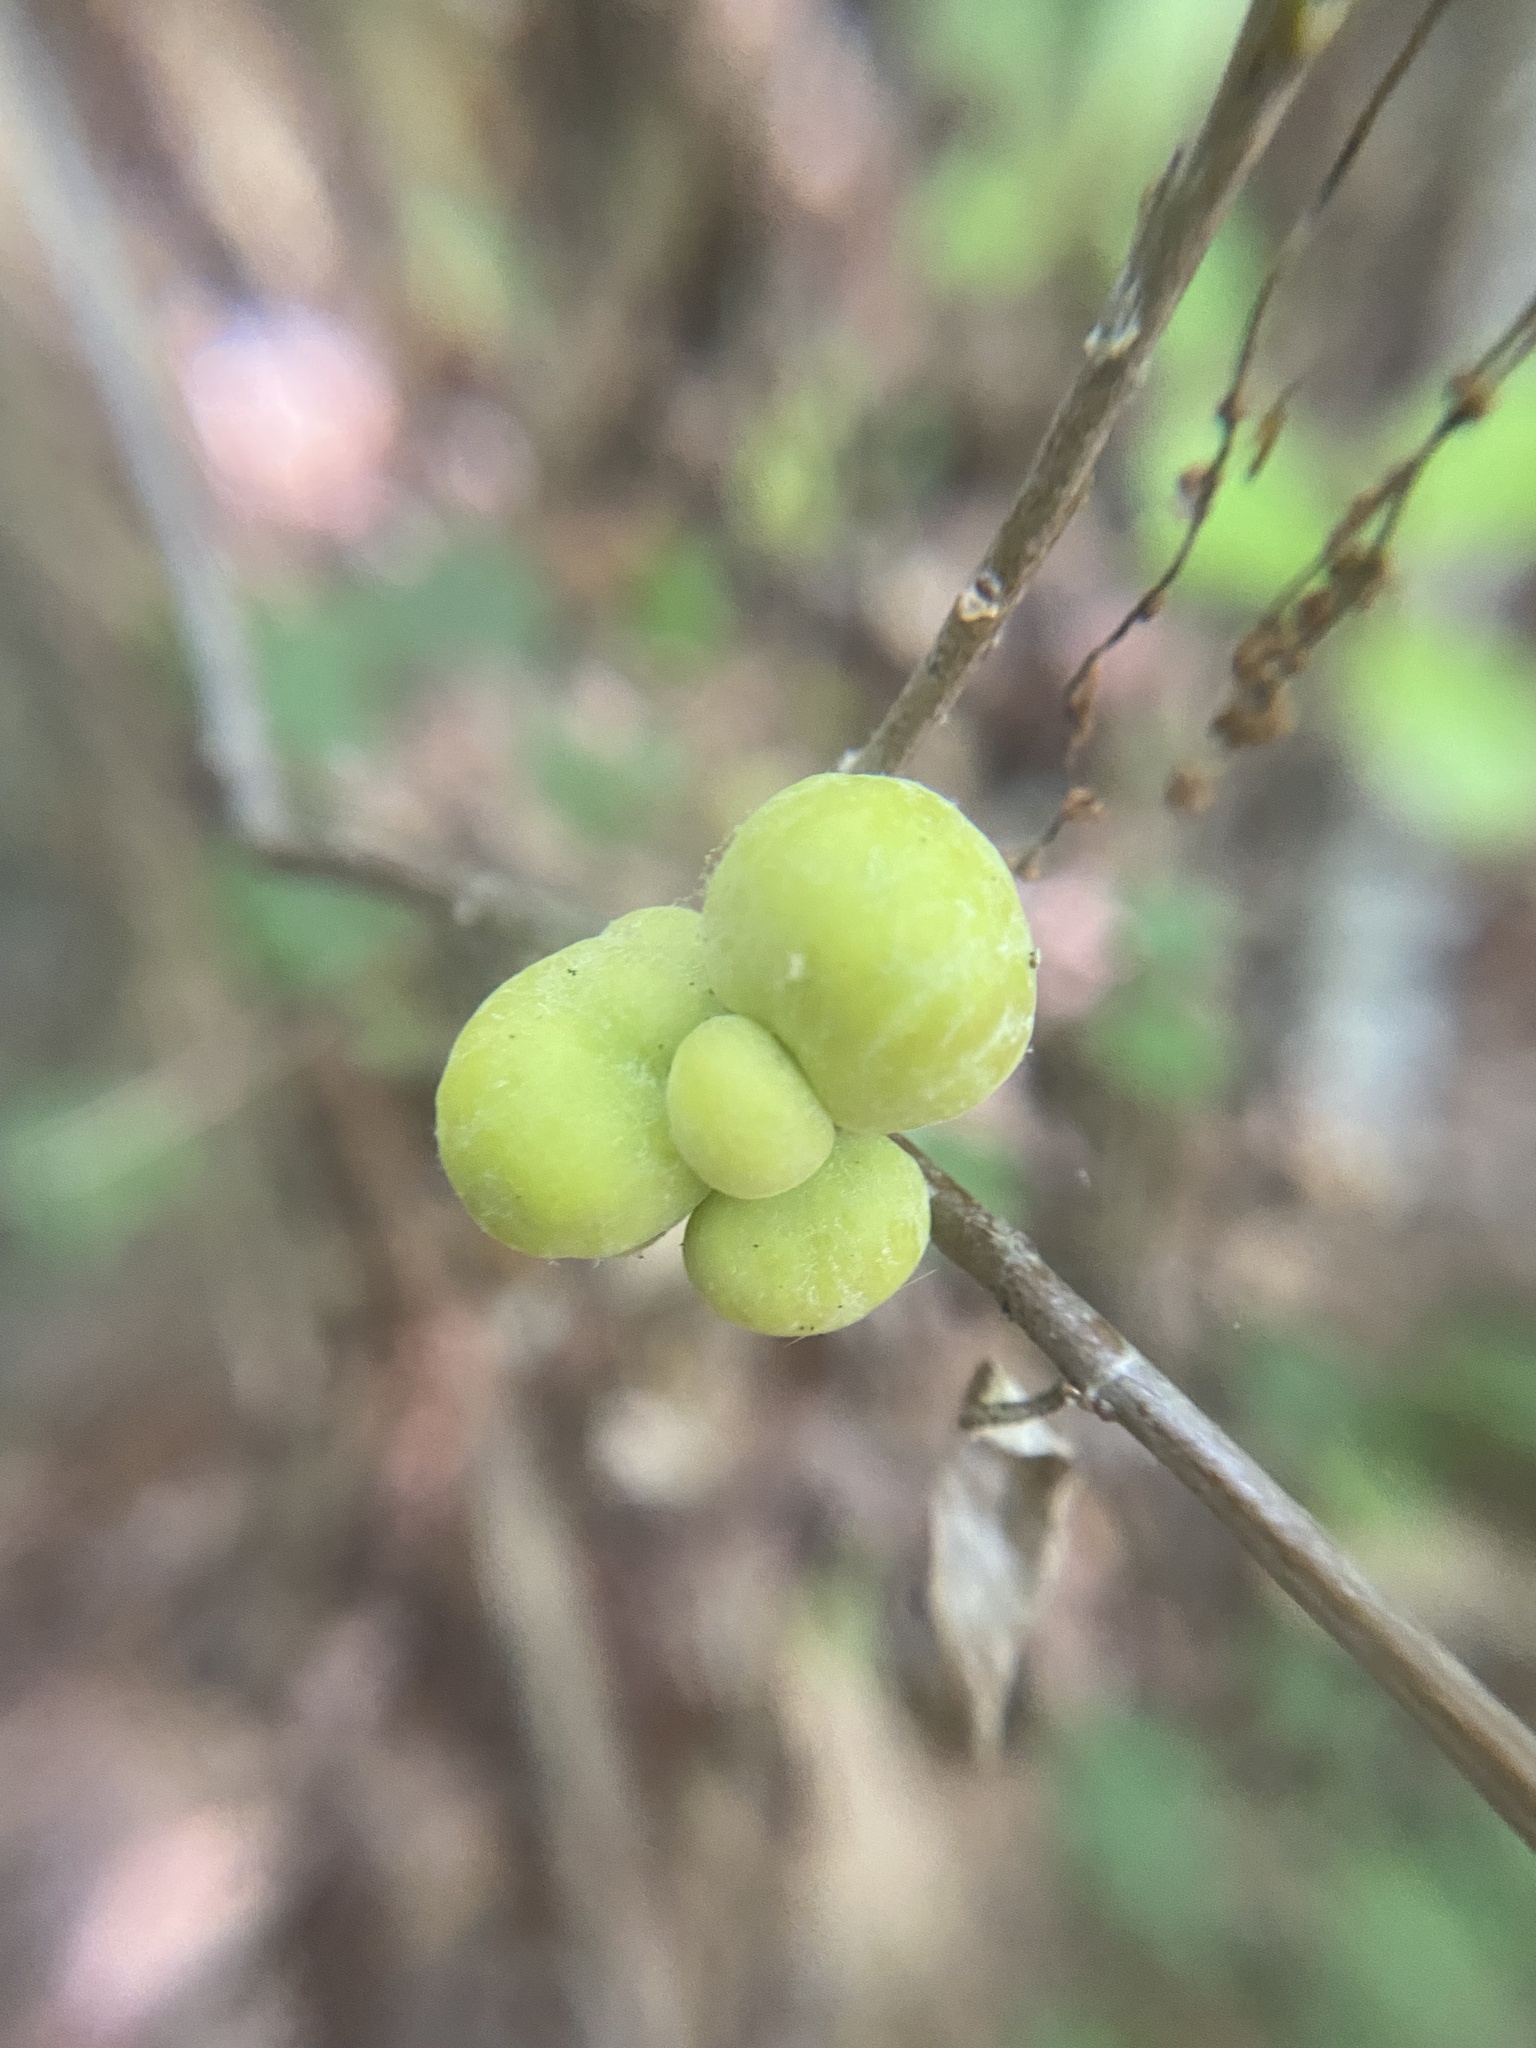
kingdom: Fungi
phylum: Basidiomycota
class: Exobasidiomycetes
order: Exobasidiales
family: Exobasidiaceae
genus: Exobasidium
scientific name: Exobasidium symploci
